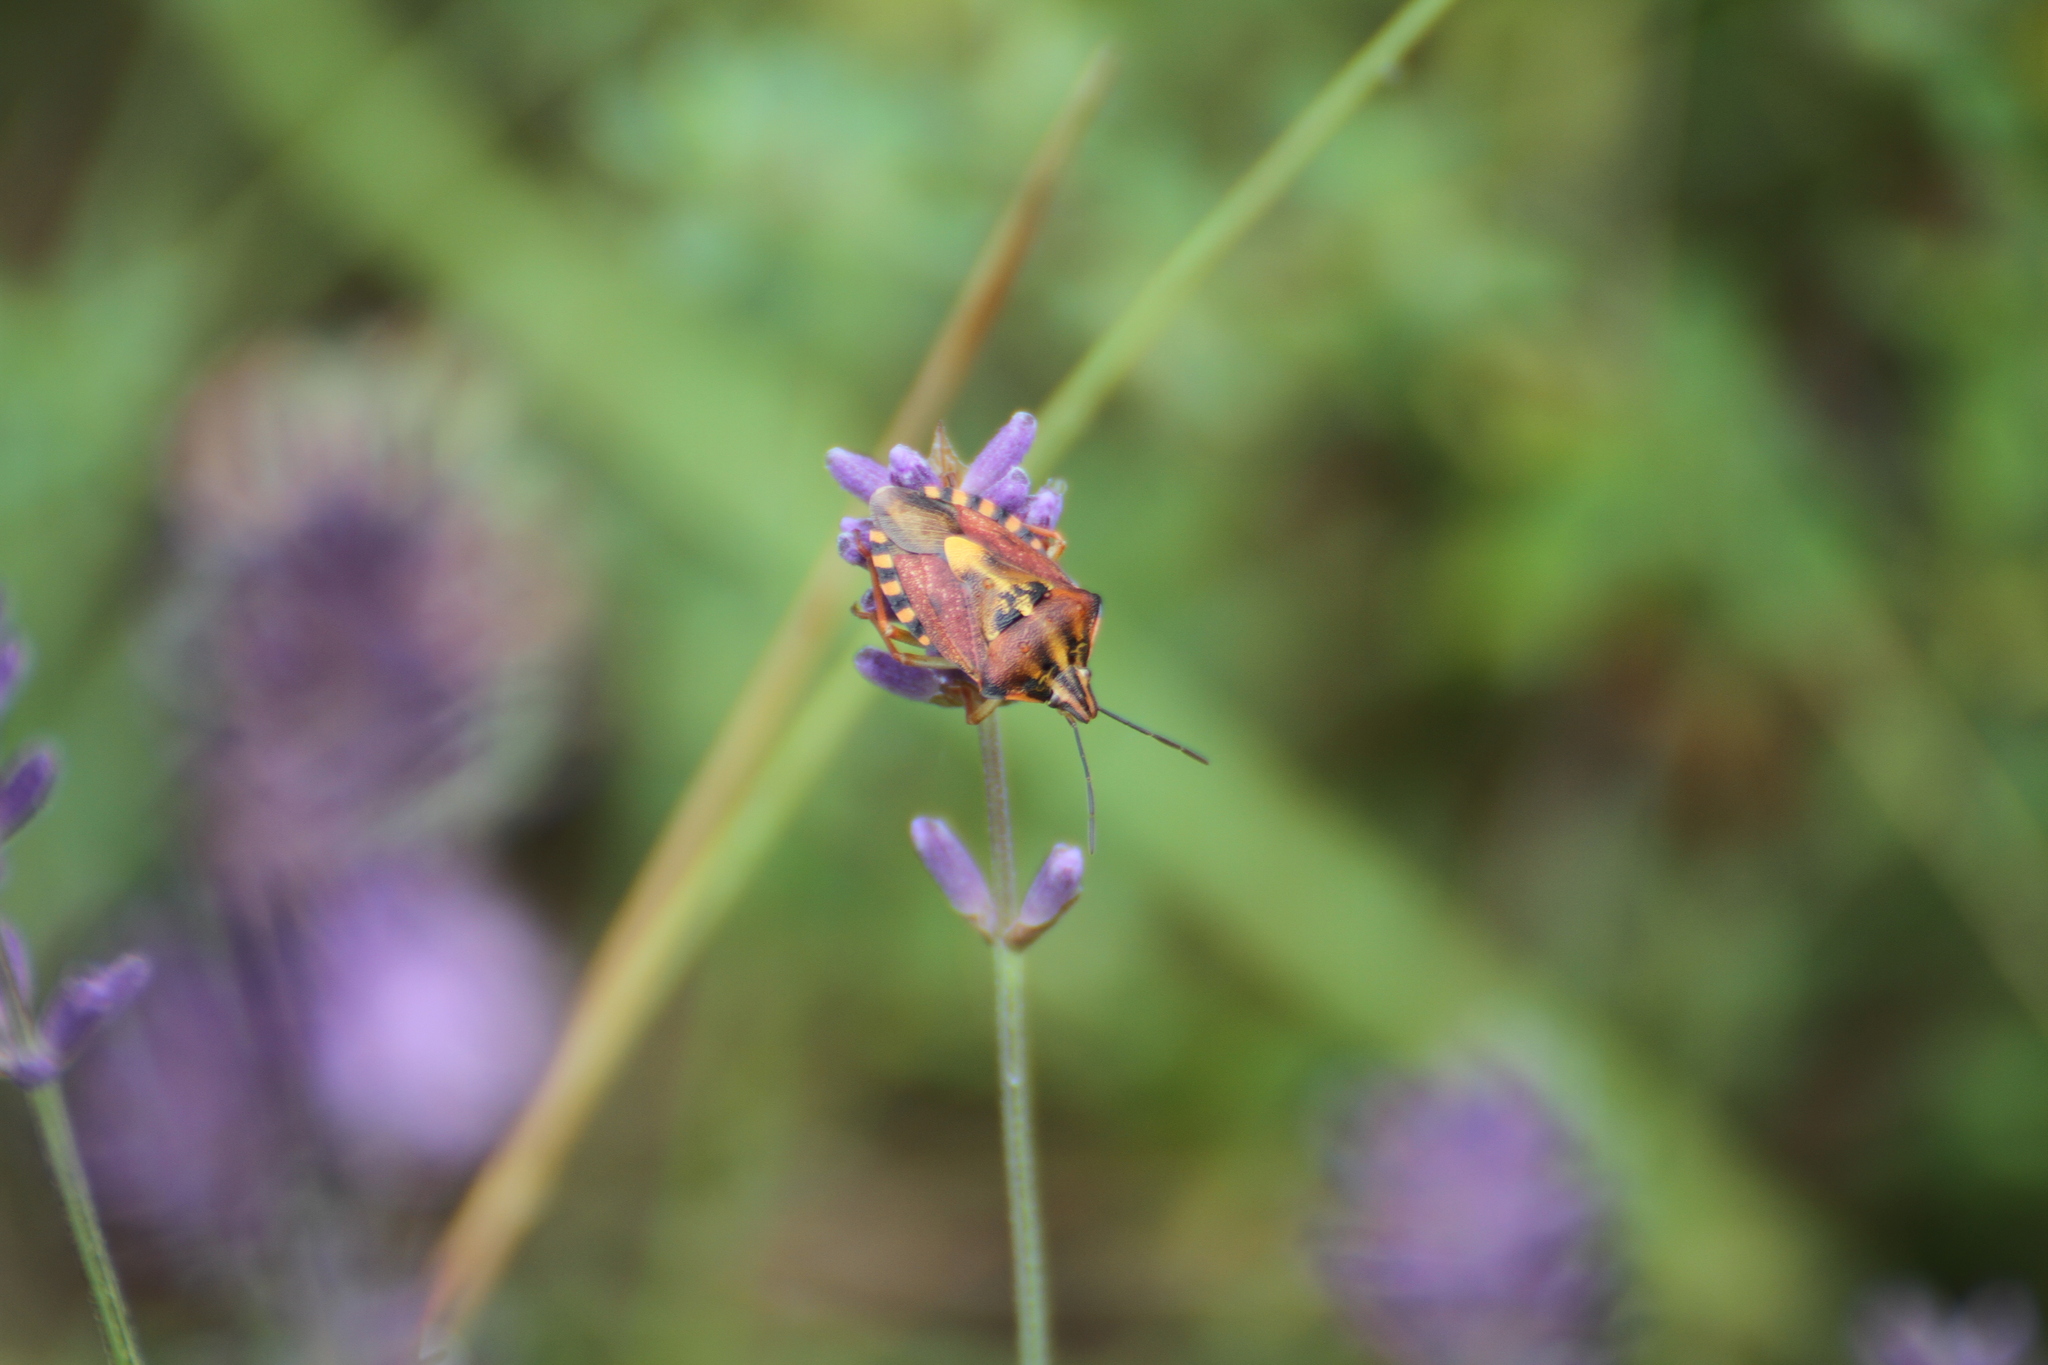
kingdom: Animalia
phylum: Arthropoda
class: Insecta
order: Hemiptera
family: Pentatomidae
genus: Carpocoris
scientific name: Carpocoris purpureipennis
